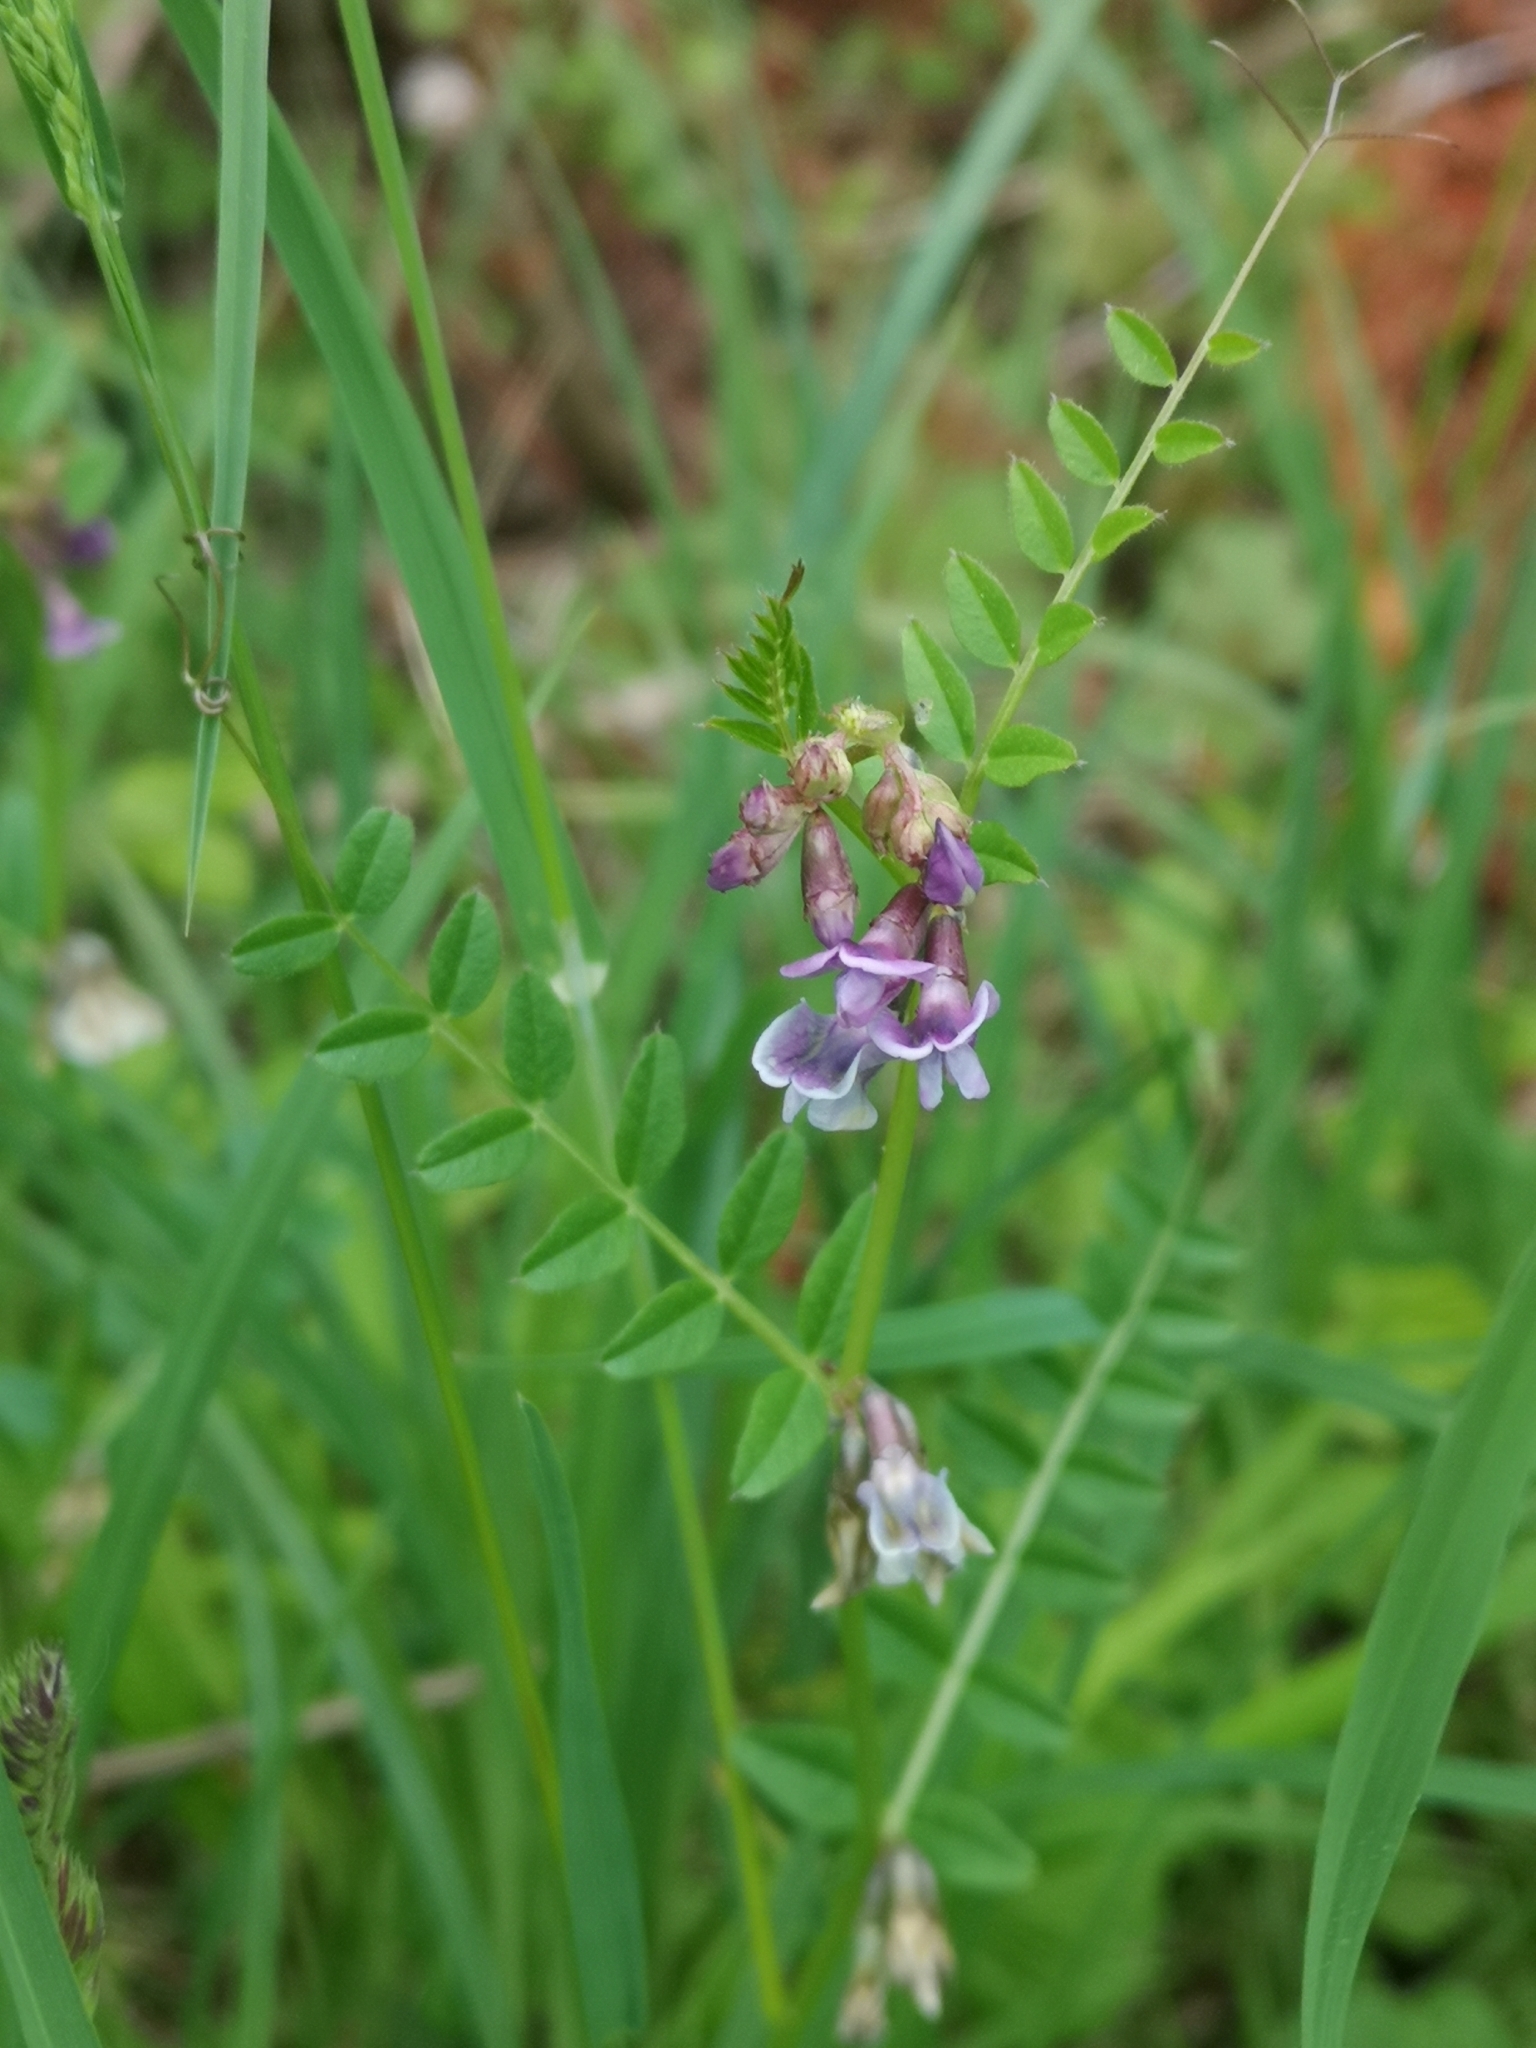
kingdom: Plantae
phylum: Tracheophyta
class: Magnoliopsida
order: Fabales
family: Fabaceae
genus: Vicia
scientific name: Vicia sepium
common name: Bush vetch
